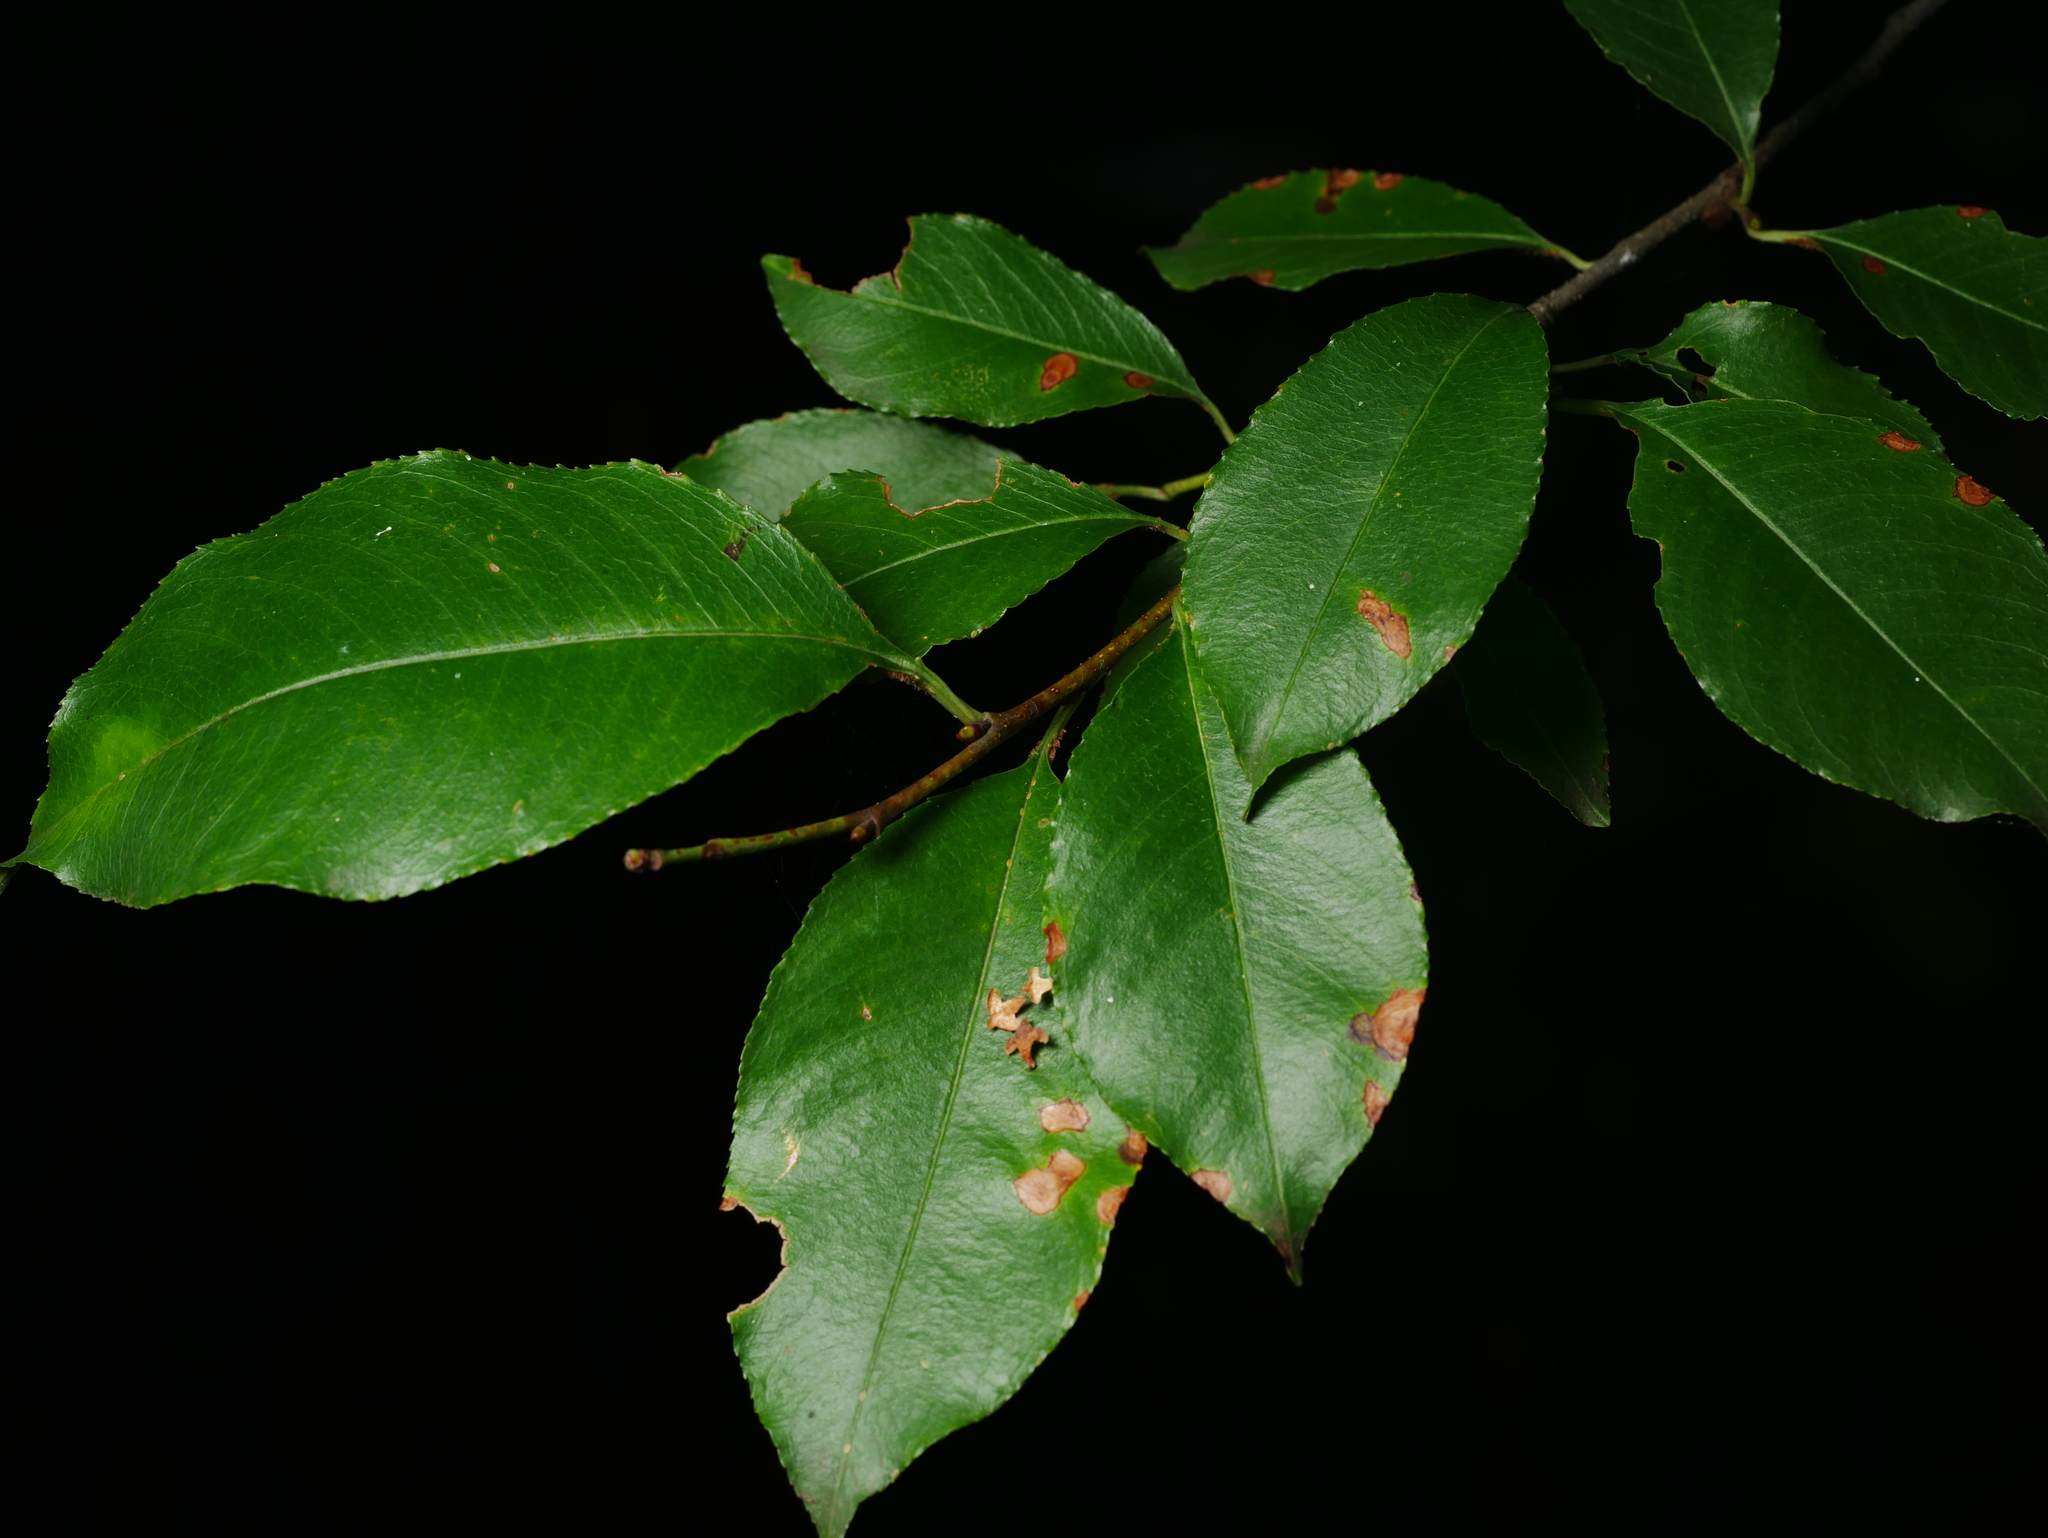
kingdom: Plantae
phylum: Tracheophyta
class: Magnoliopsida
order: Rosales
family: Rosaceae
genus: Prunus
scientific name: Prunus serotina
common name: Black cherry
